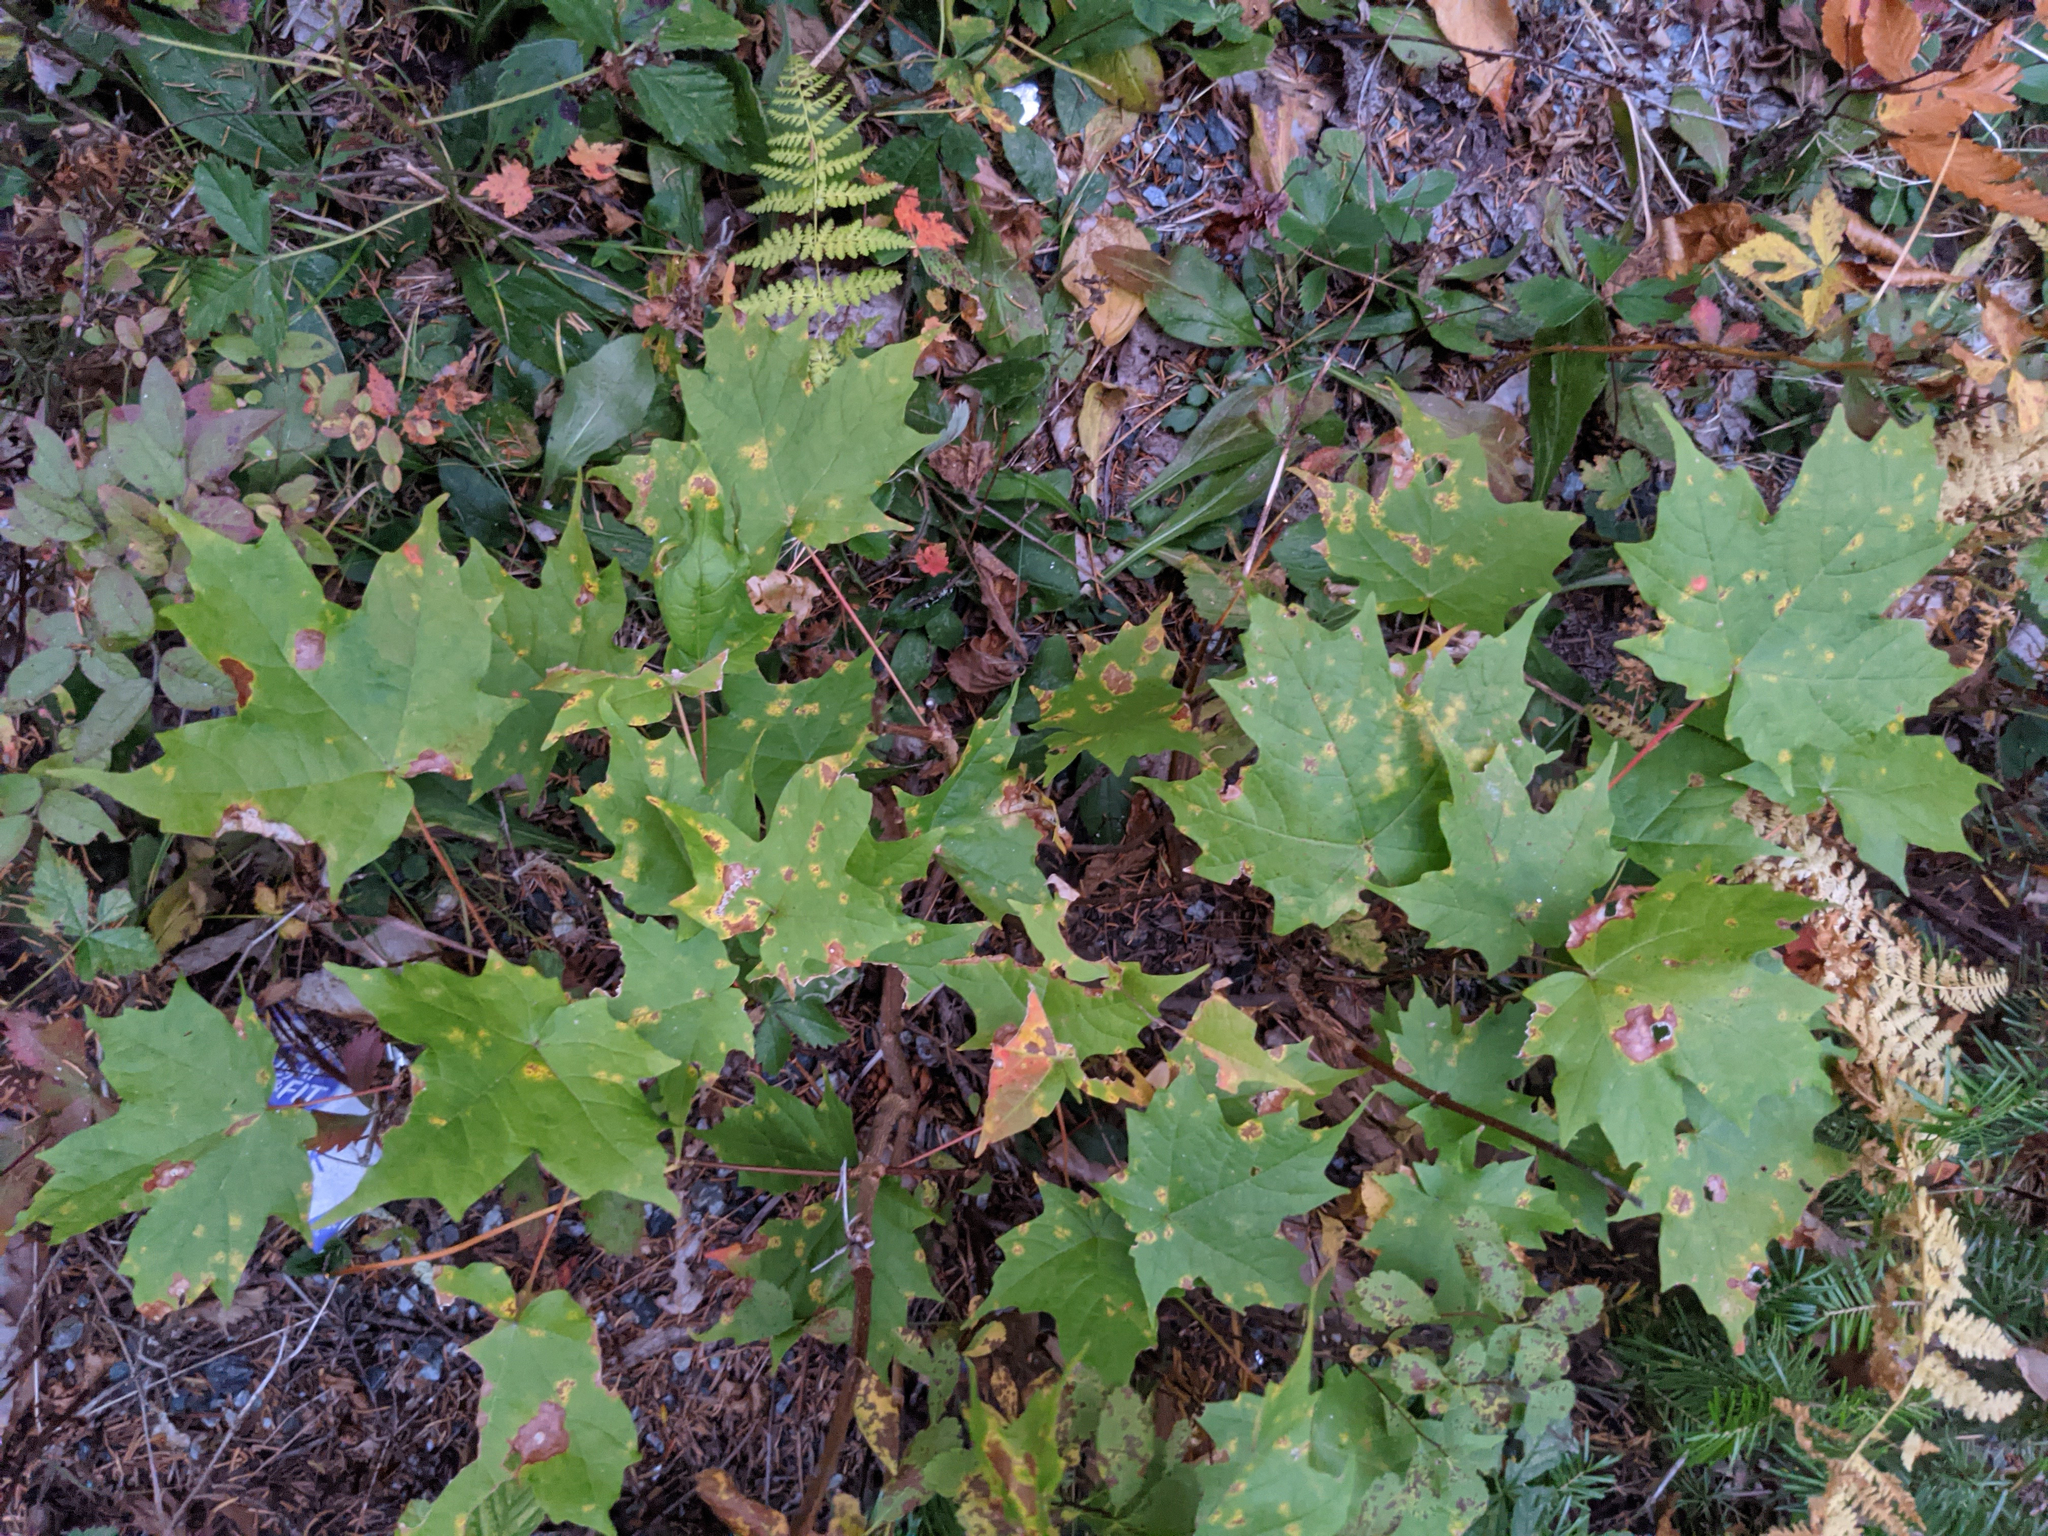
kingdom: Plantae
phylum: Tracheophyta
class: Magnoliopsida
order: Sapindales
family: Sapindaceae
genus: Acer
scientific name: Acer saccharum
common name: Sugar maple
